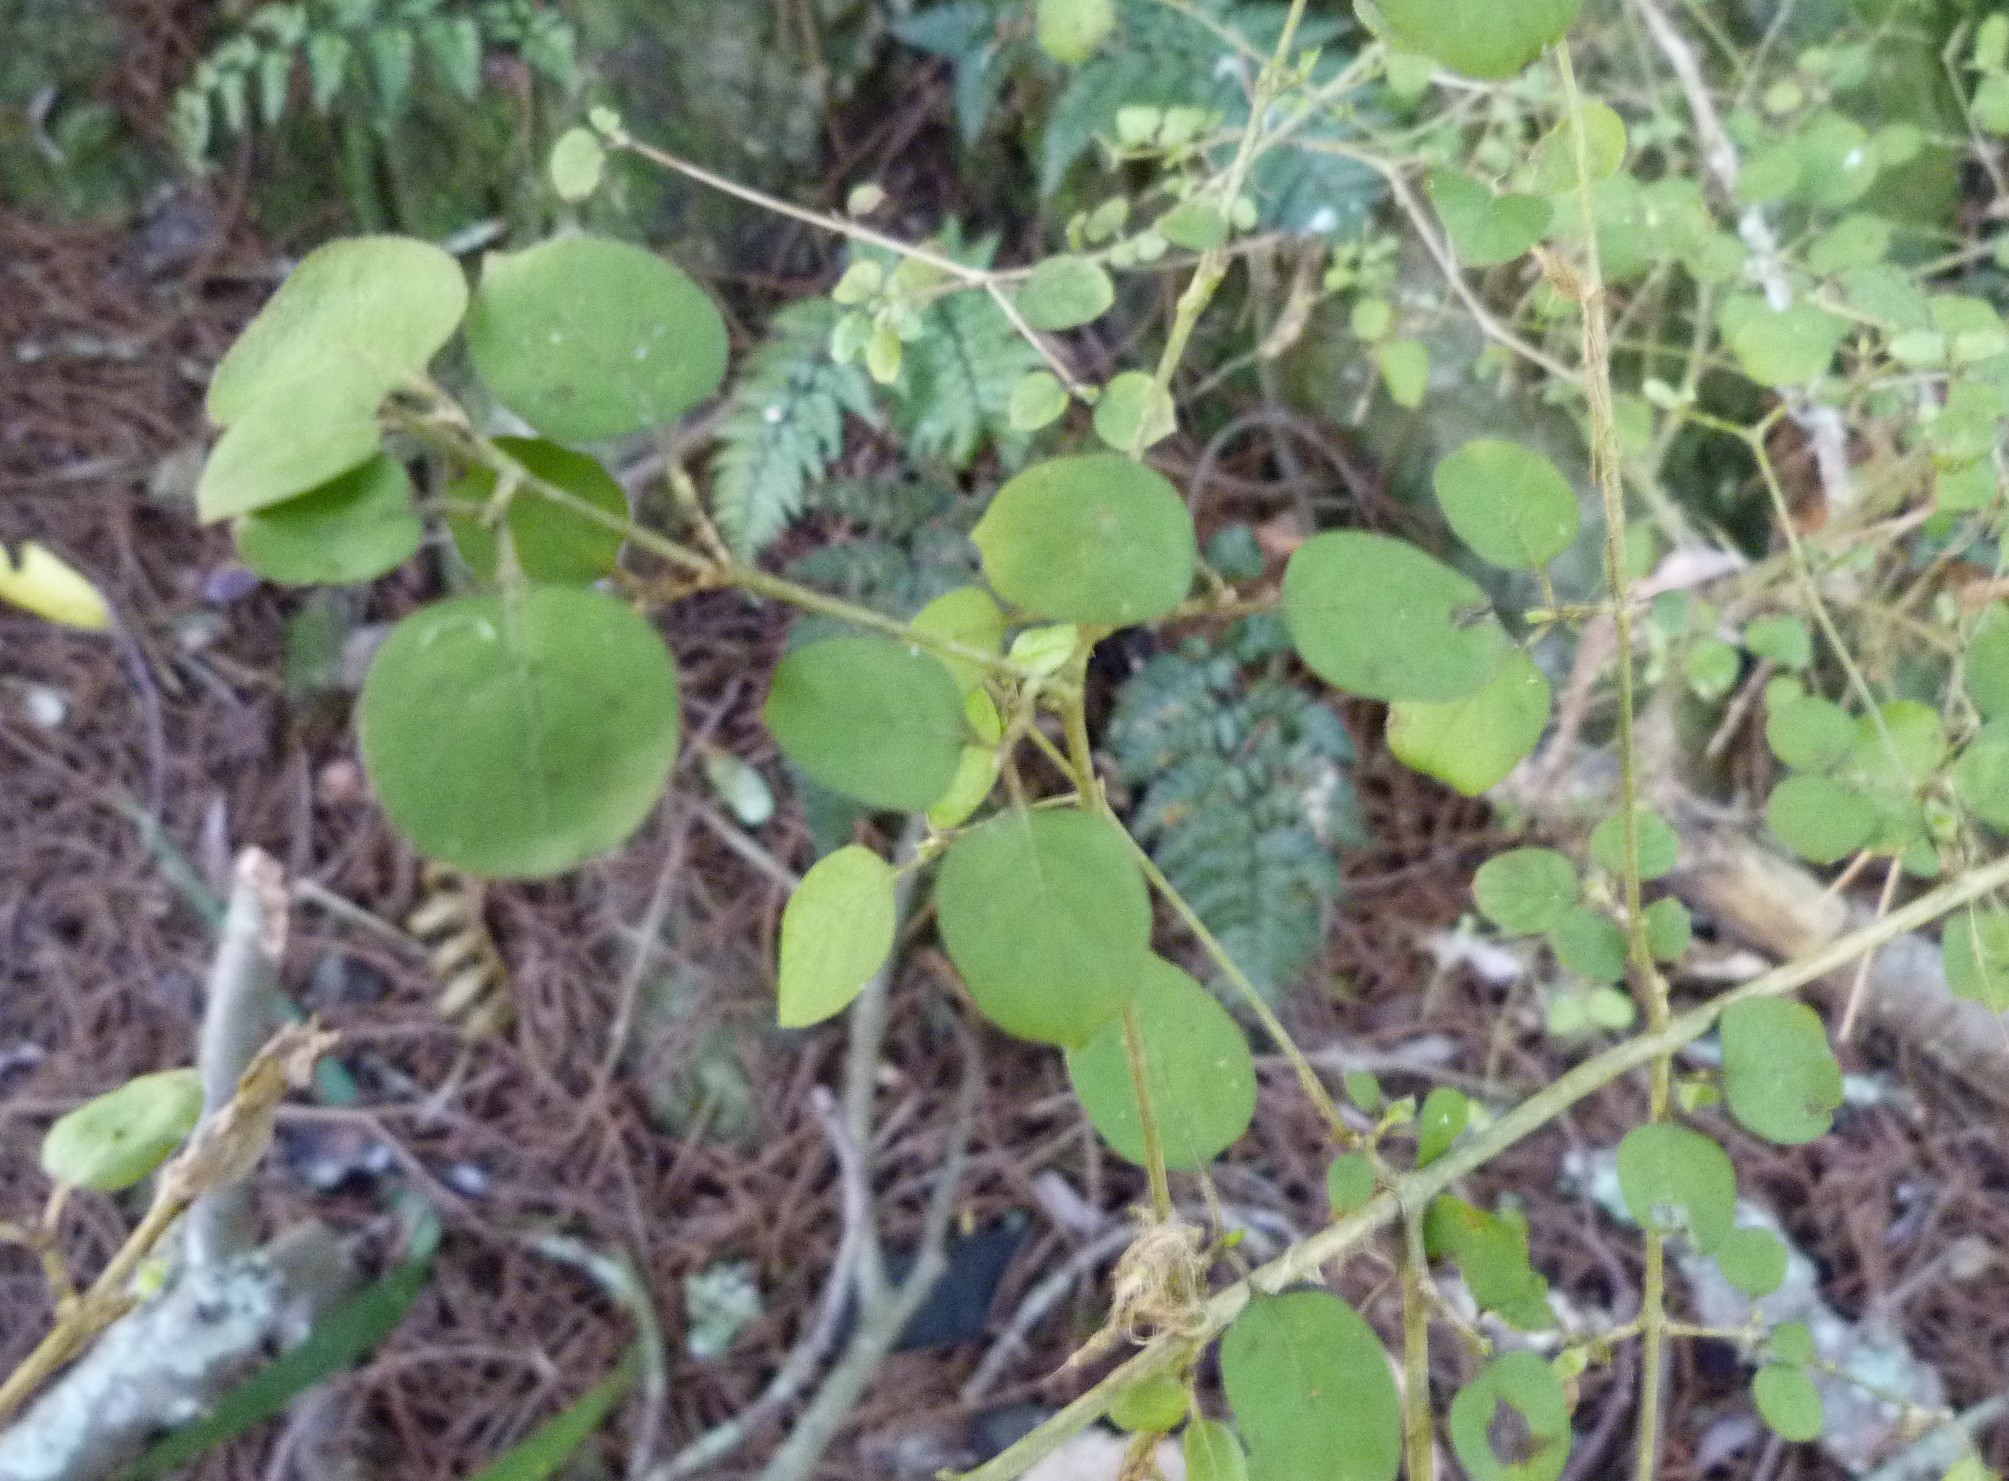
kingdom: Plantae
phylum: Tracheophyta
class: Magnoliopsida
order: Gentianales
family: Rubiaceae
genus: Coprosma
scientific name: Coprosma rotundifolia
